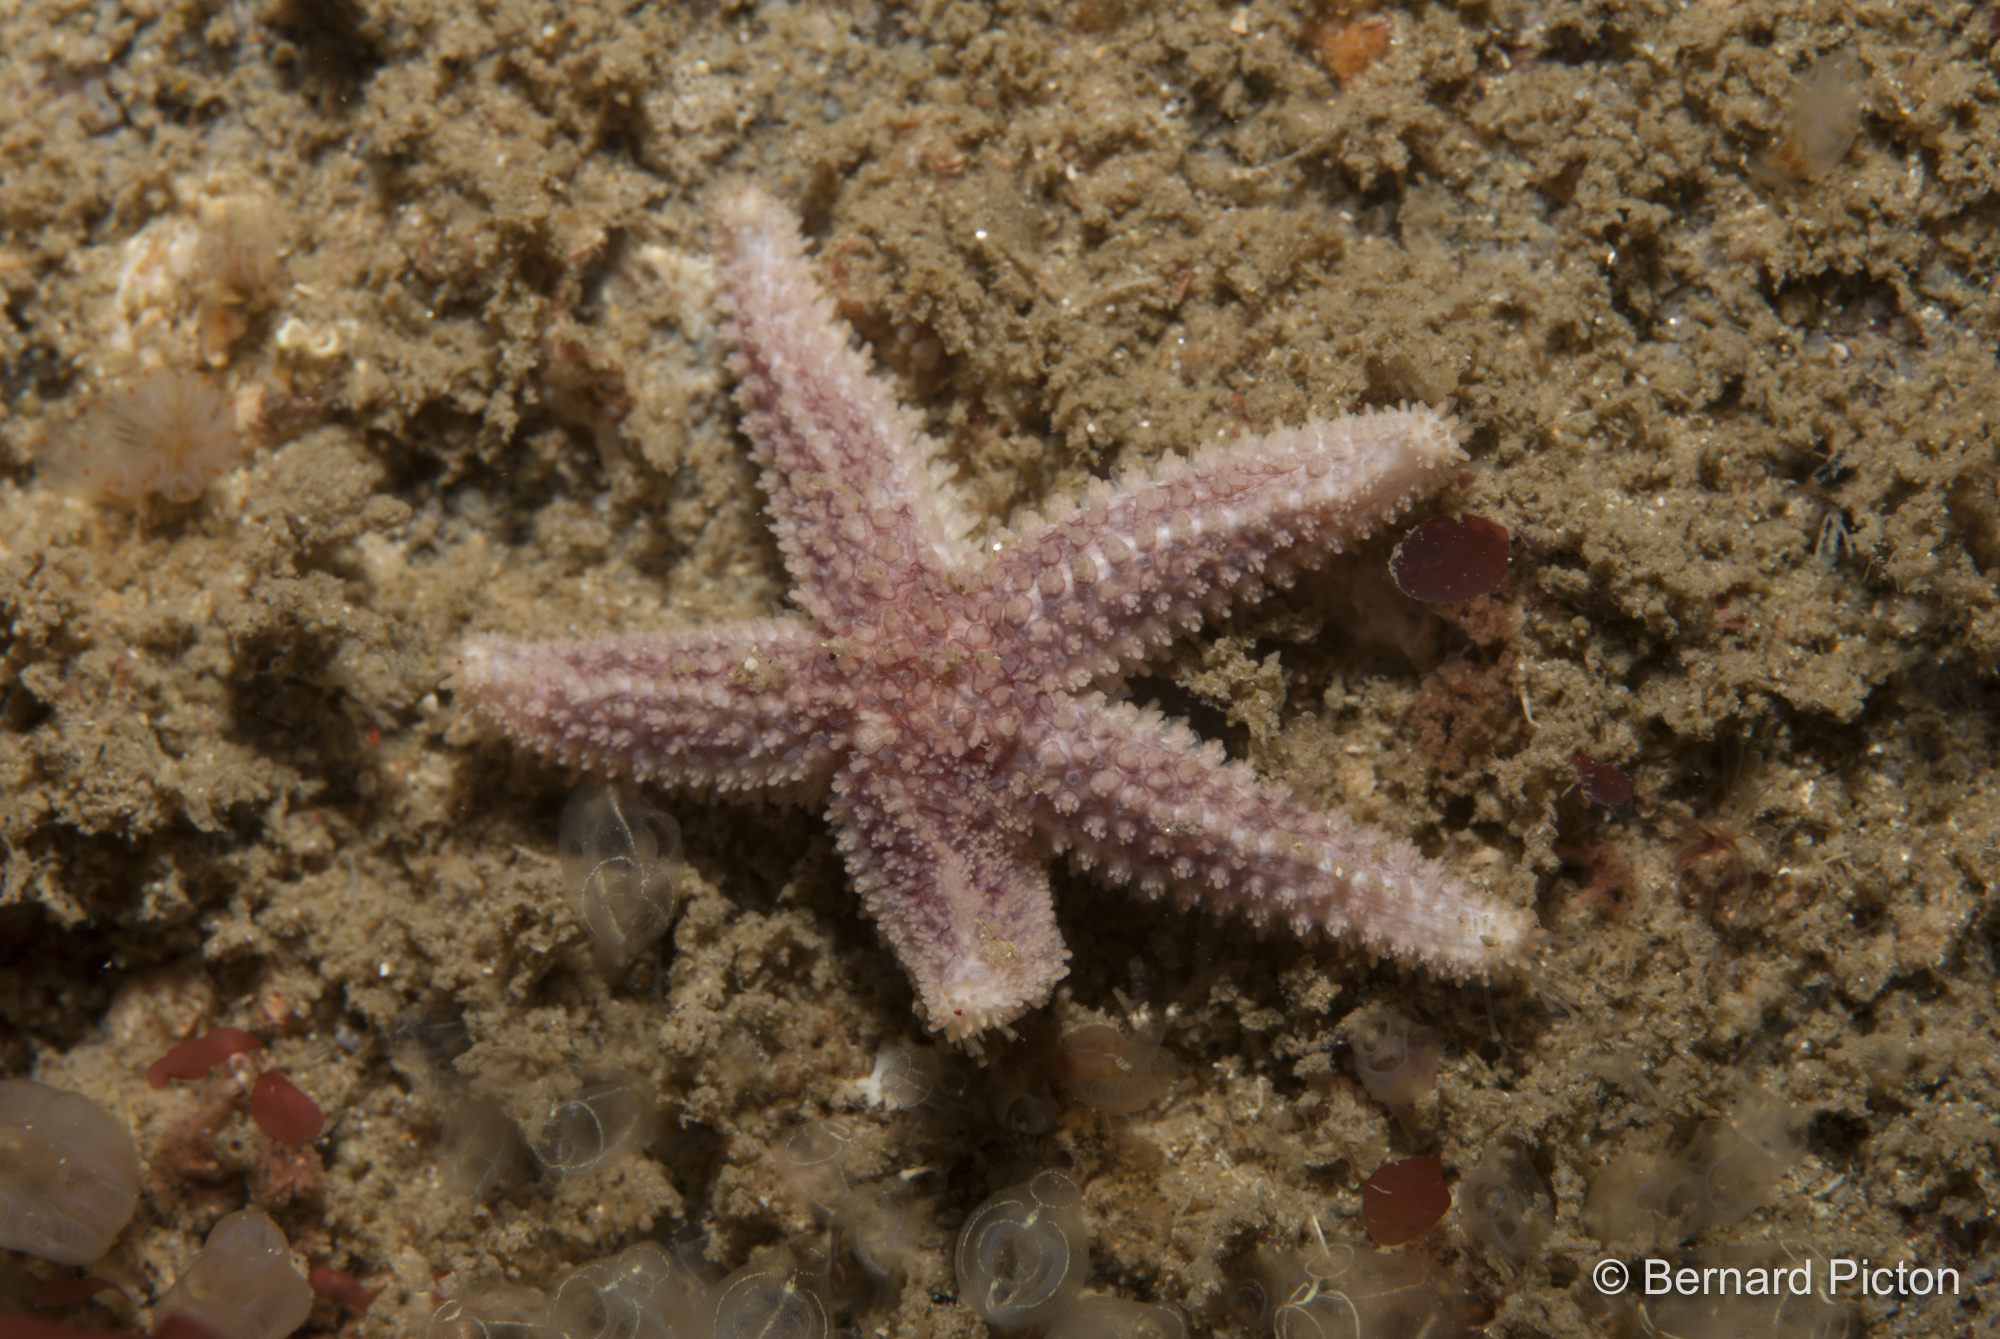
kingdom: Animalia
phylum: Echinodermata
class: Asteroidea
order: Forcipulatida
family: Asteriidae
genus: Leptasterias
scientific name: Leptasterias muelleri
